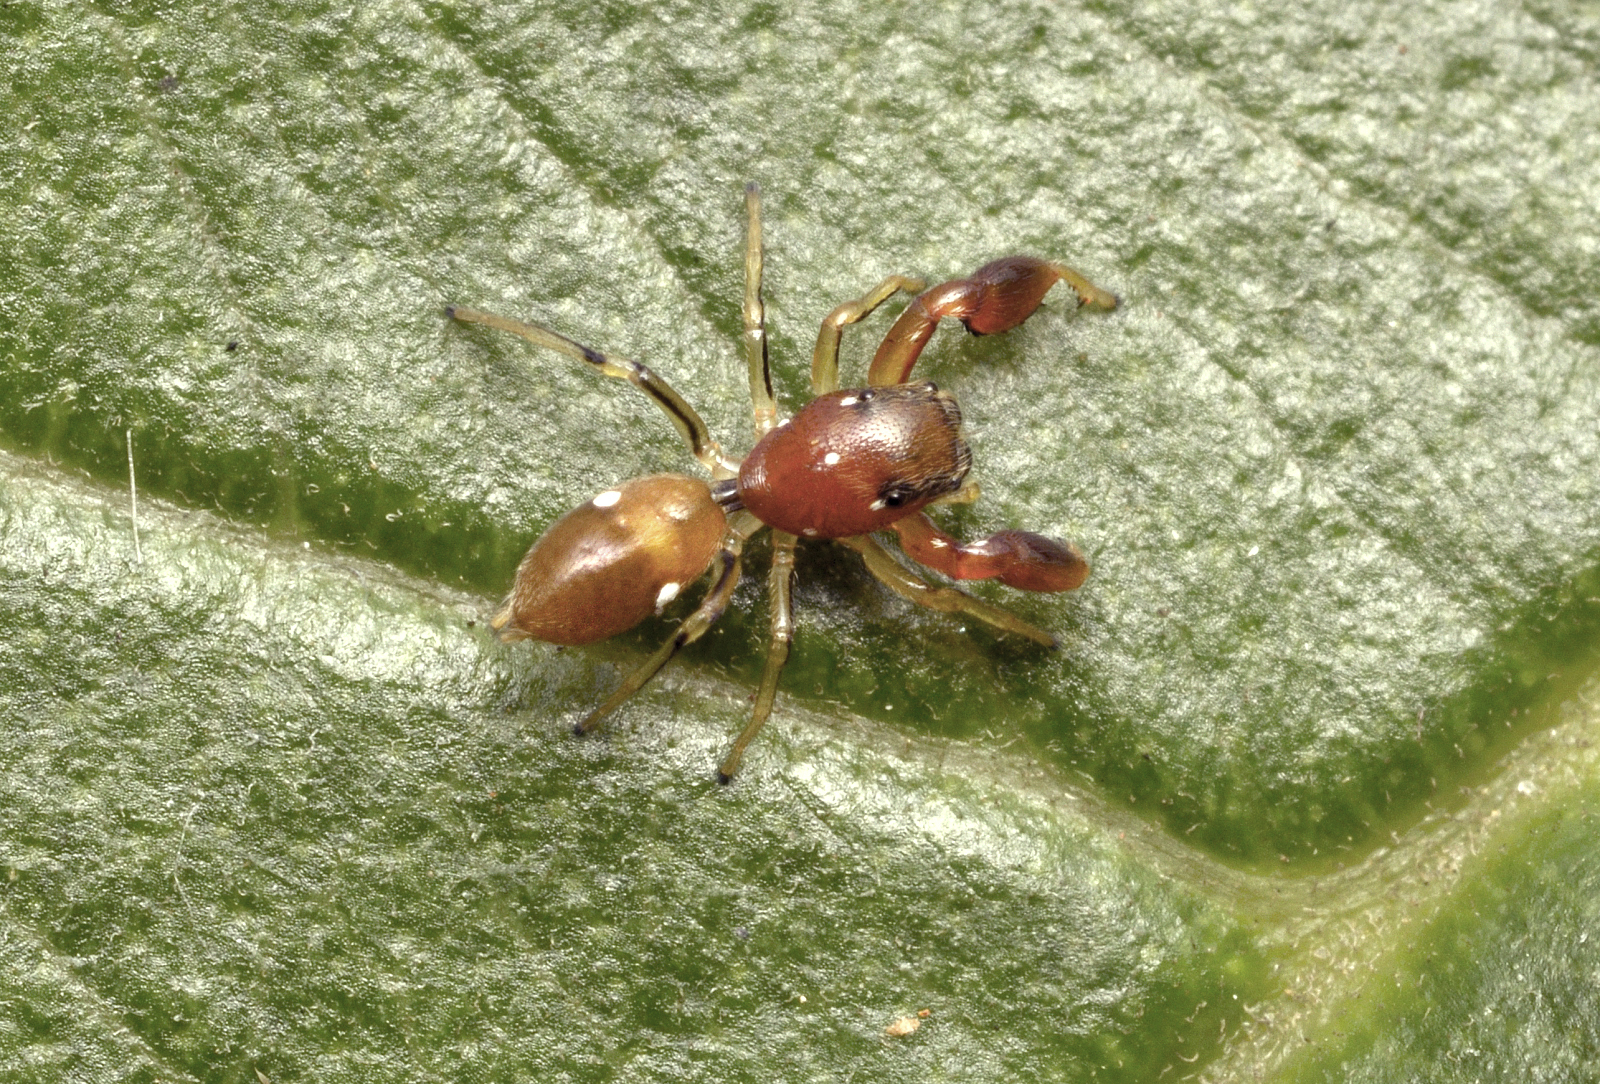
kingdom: Animalia
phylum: Arthropoda
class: Arachnida
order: Araneae
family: Salticidae
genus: Marengo
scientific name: Marengo batheryensis
